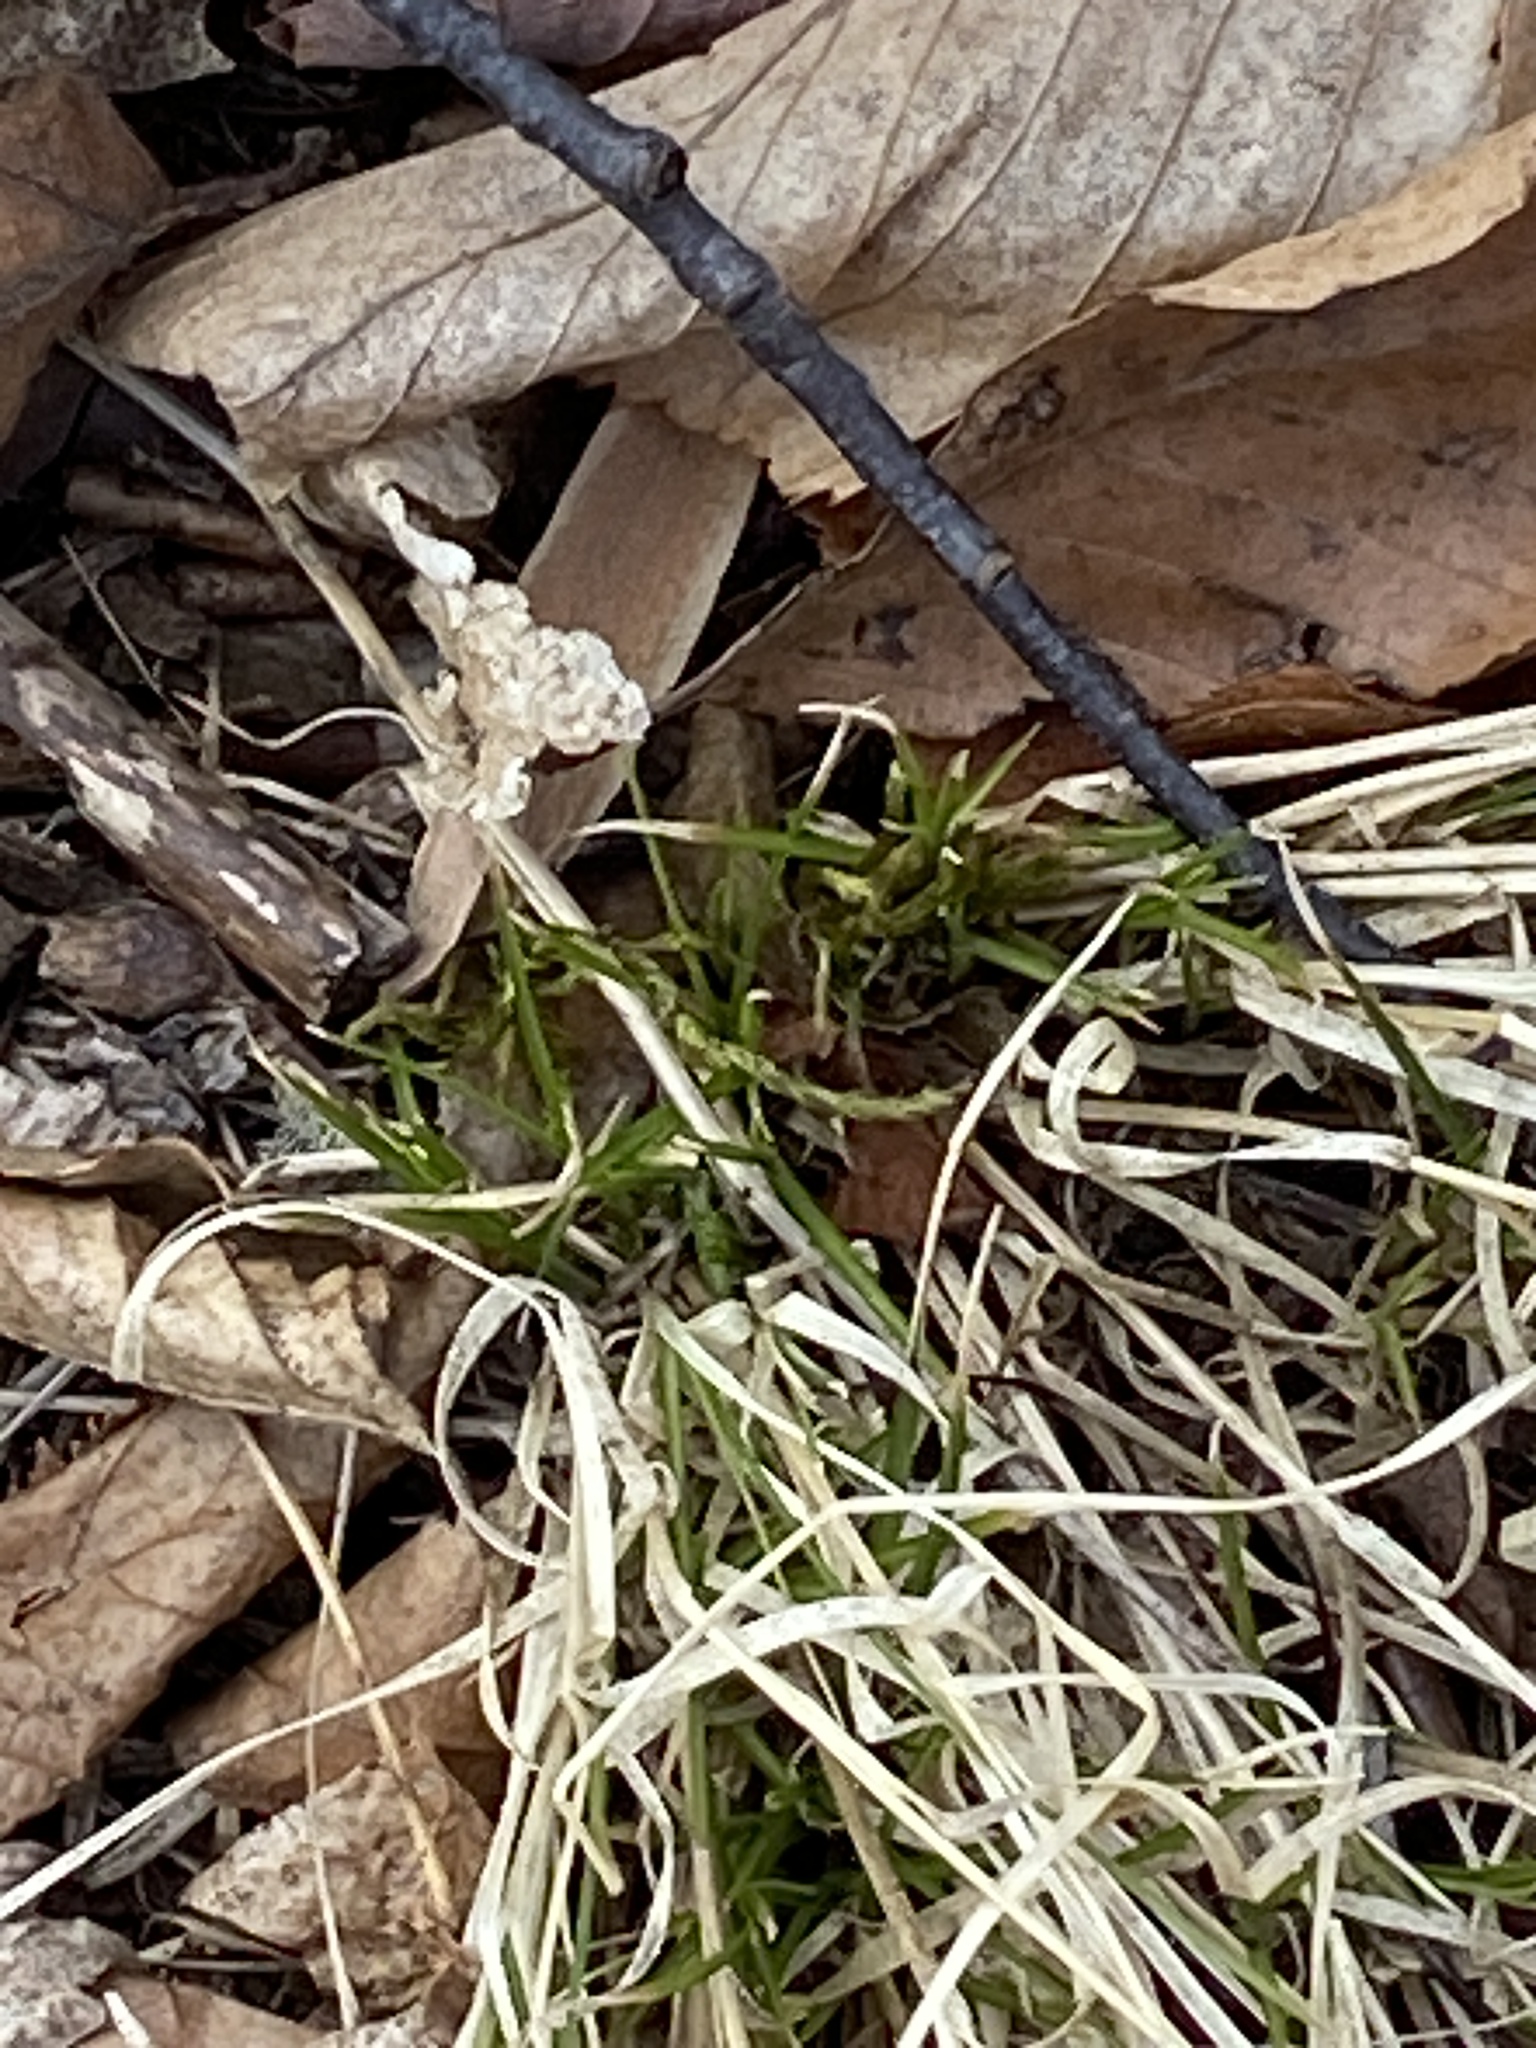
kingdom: Plantae
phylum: Tracheophyta
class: Liliopsida
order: Poales
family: Poaceae
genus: Danthonia
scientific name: Danthonia spicata
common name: Common wild oatgrass
